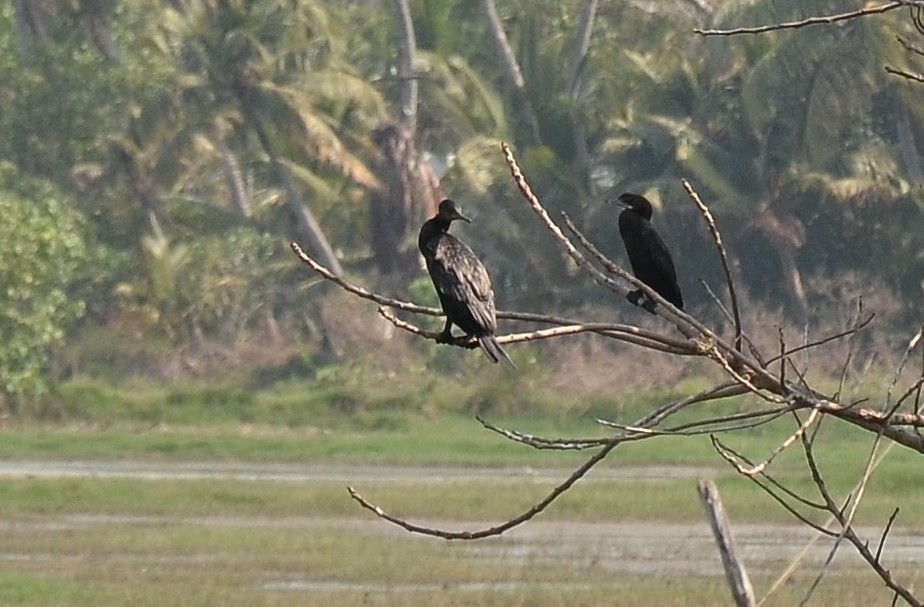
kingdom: Animalia
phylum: Chordata
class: Aves
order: Suliformes
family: Phalacrocoracidae
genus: Microcarbo
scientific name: Microcarbo niger
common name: Little cormorant
